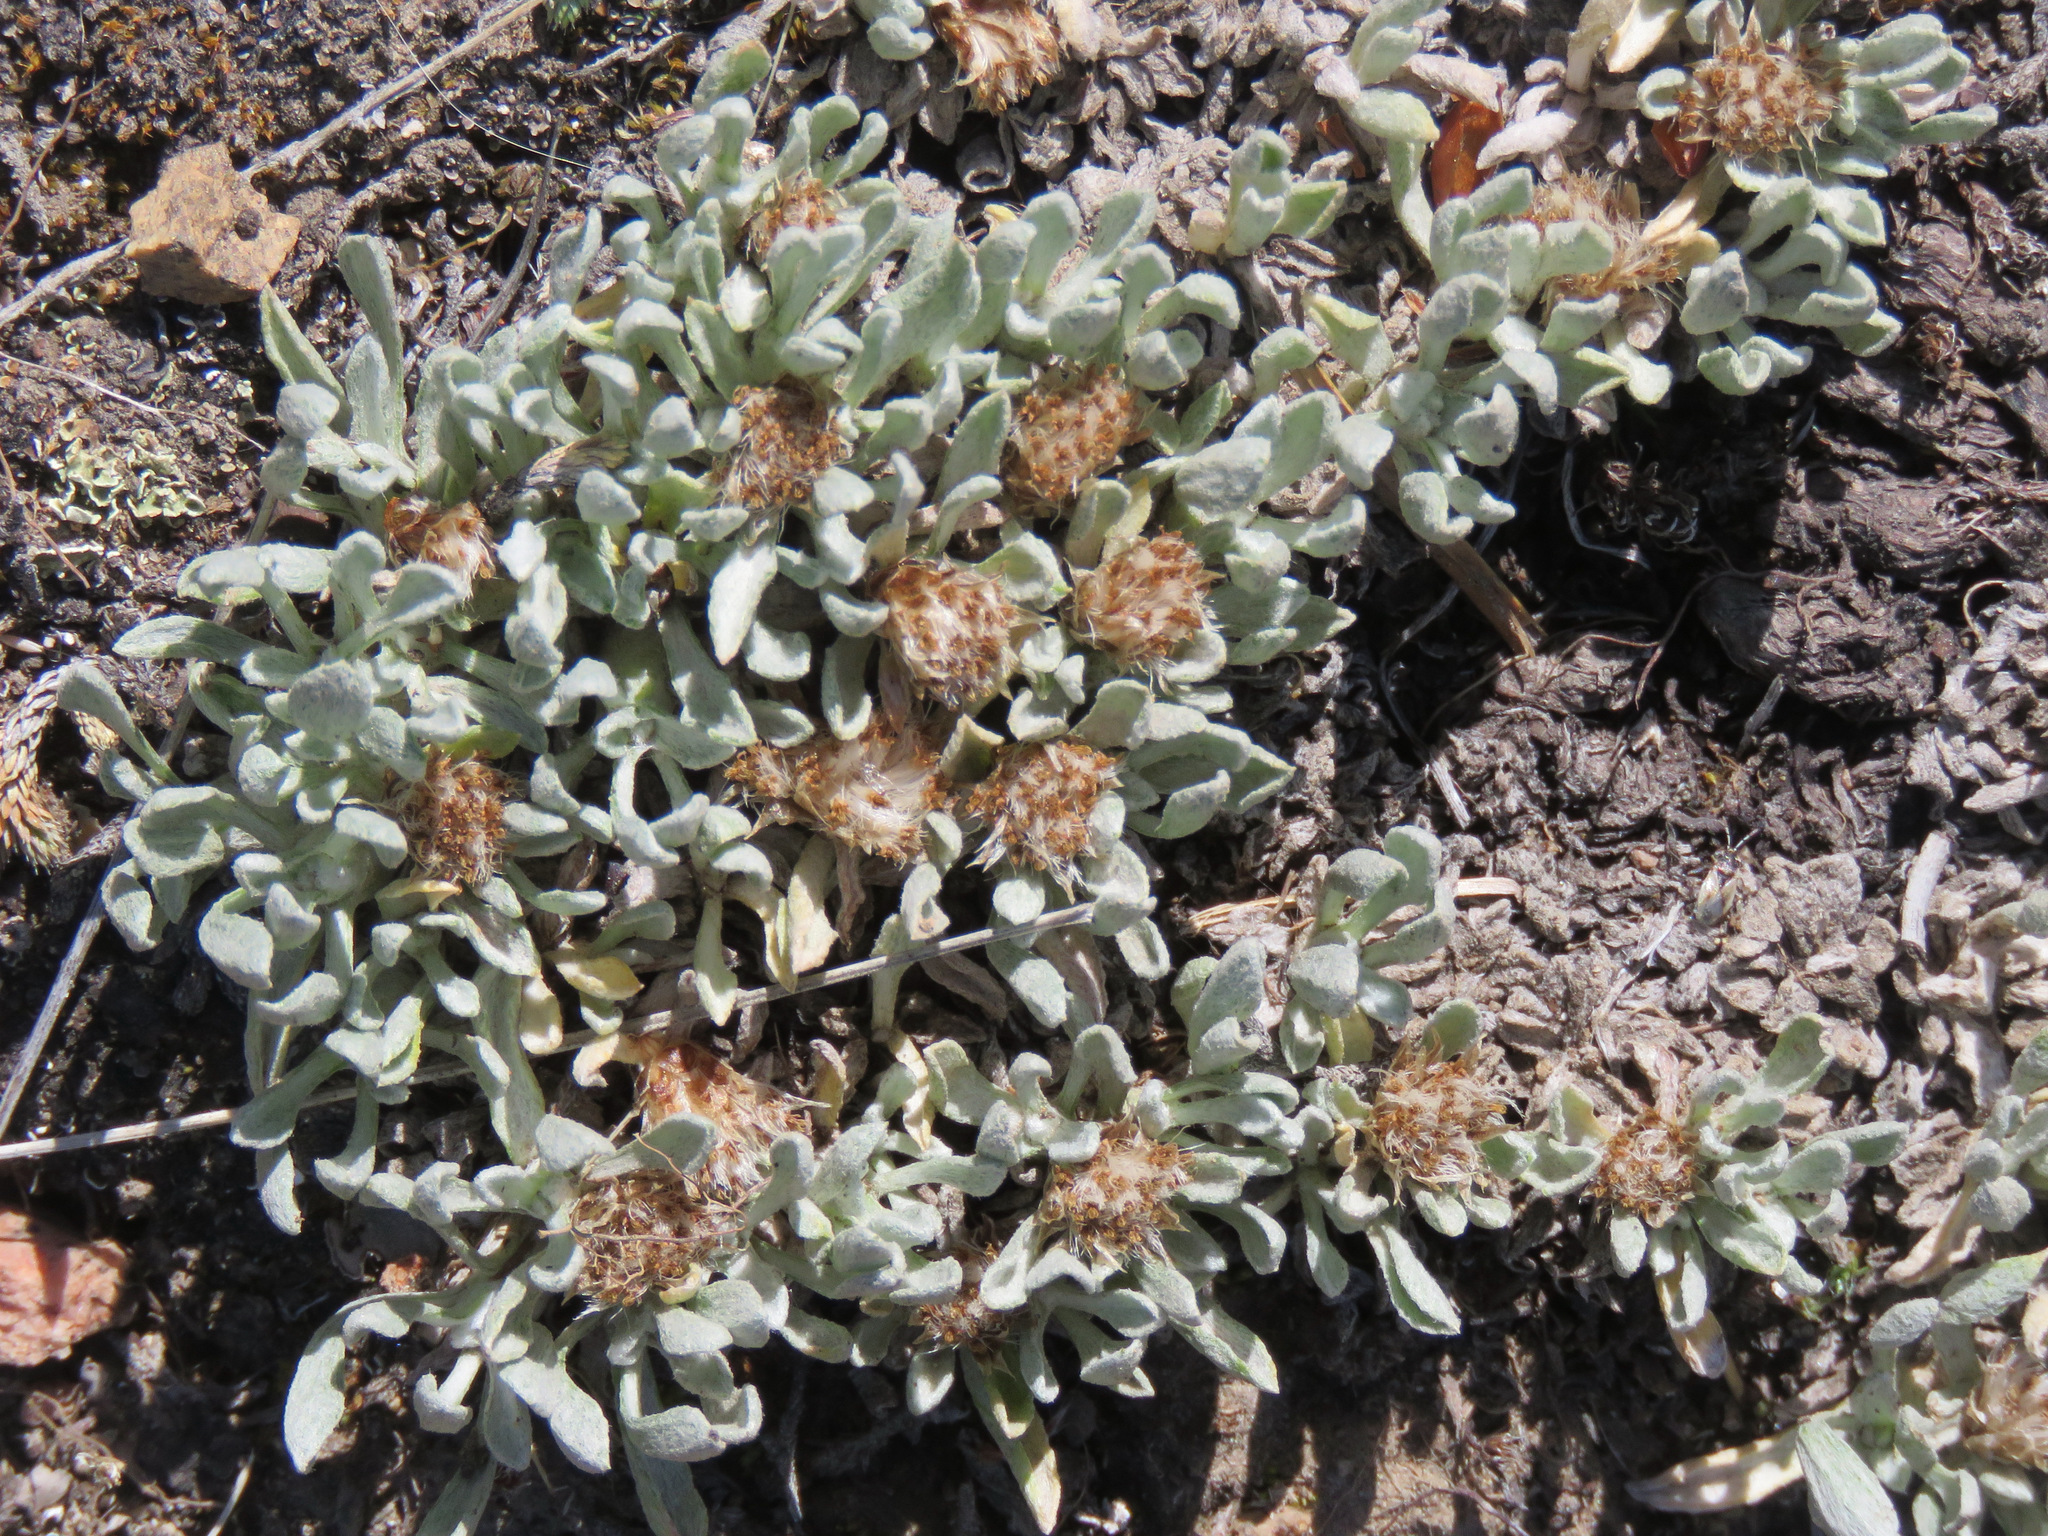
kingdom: Plantae
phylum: Tracheophyta
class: Magnoliopsida
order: Asterales
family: Asteraceae
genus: Antennaria
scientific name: Antennaria dimorpha
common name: Cushion pussytoes
